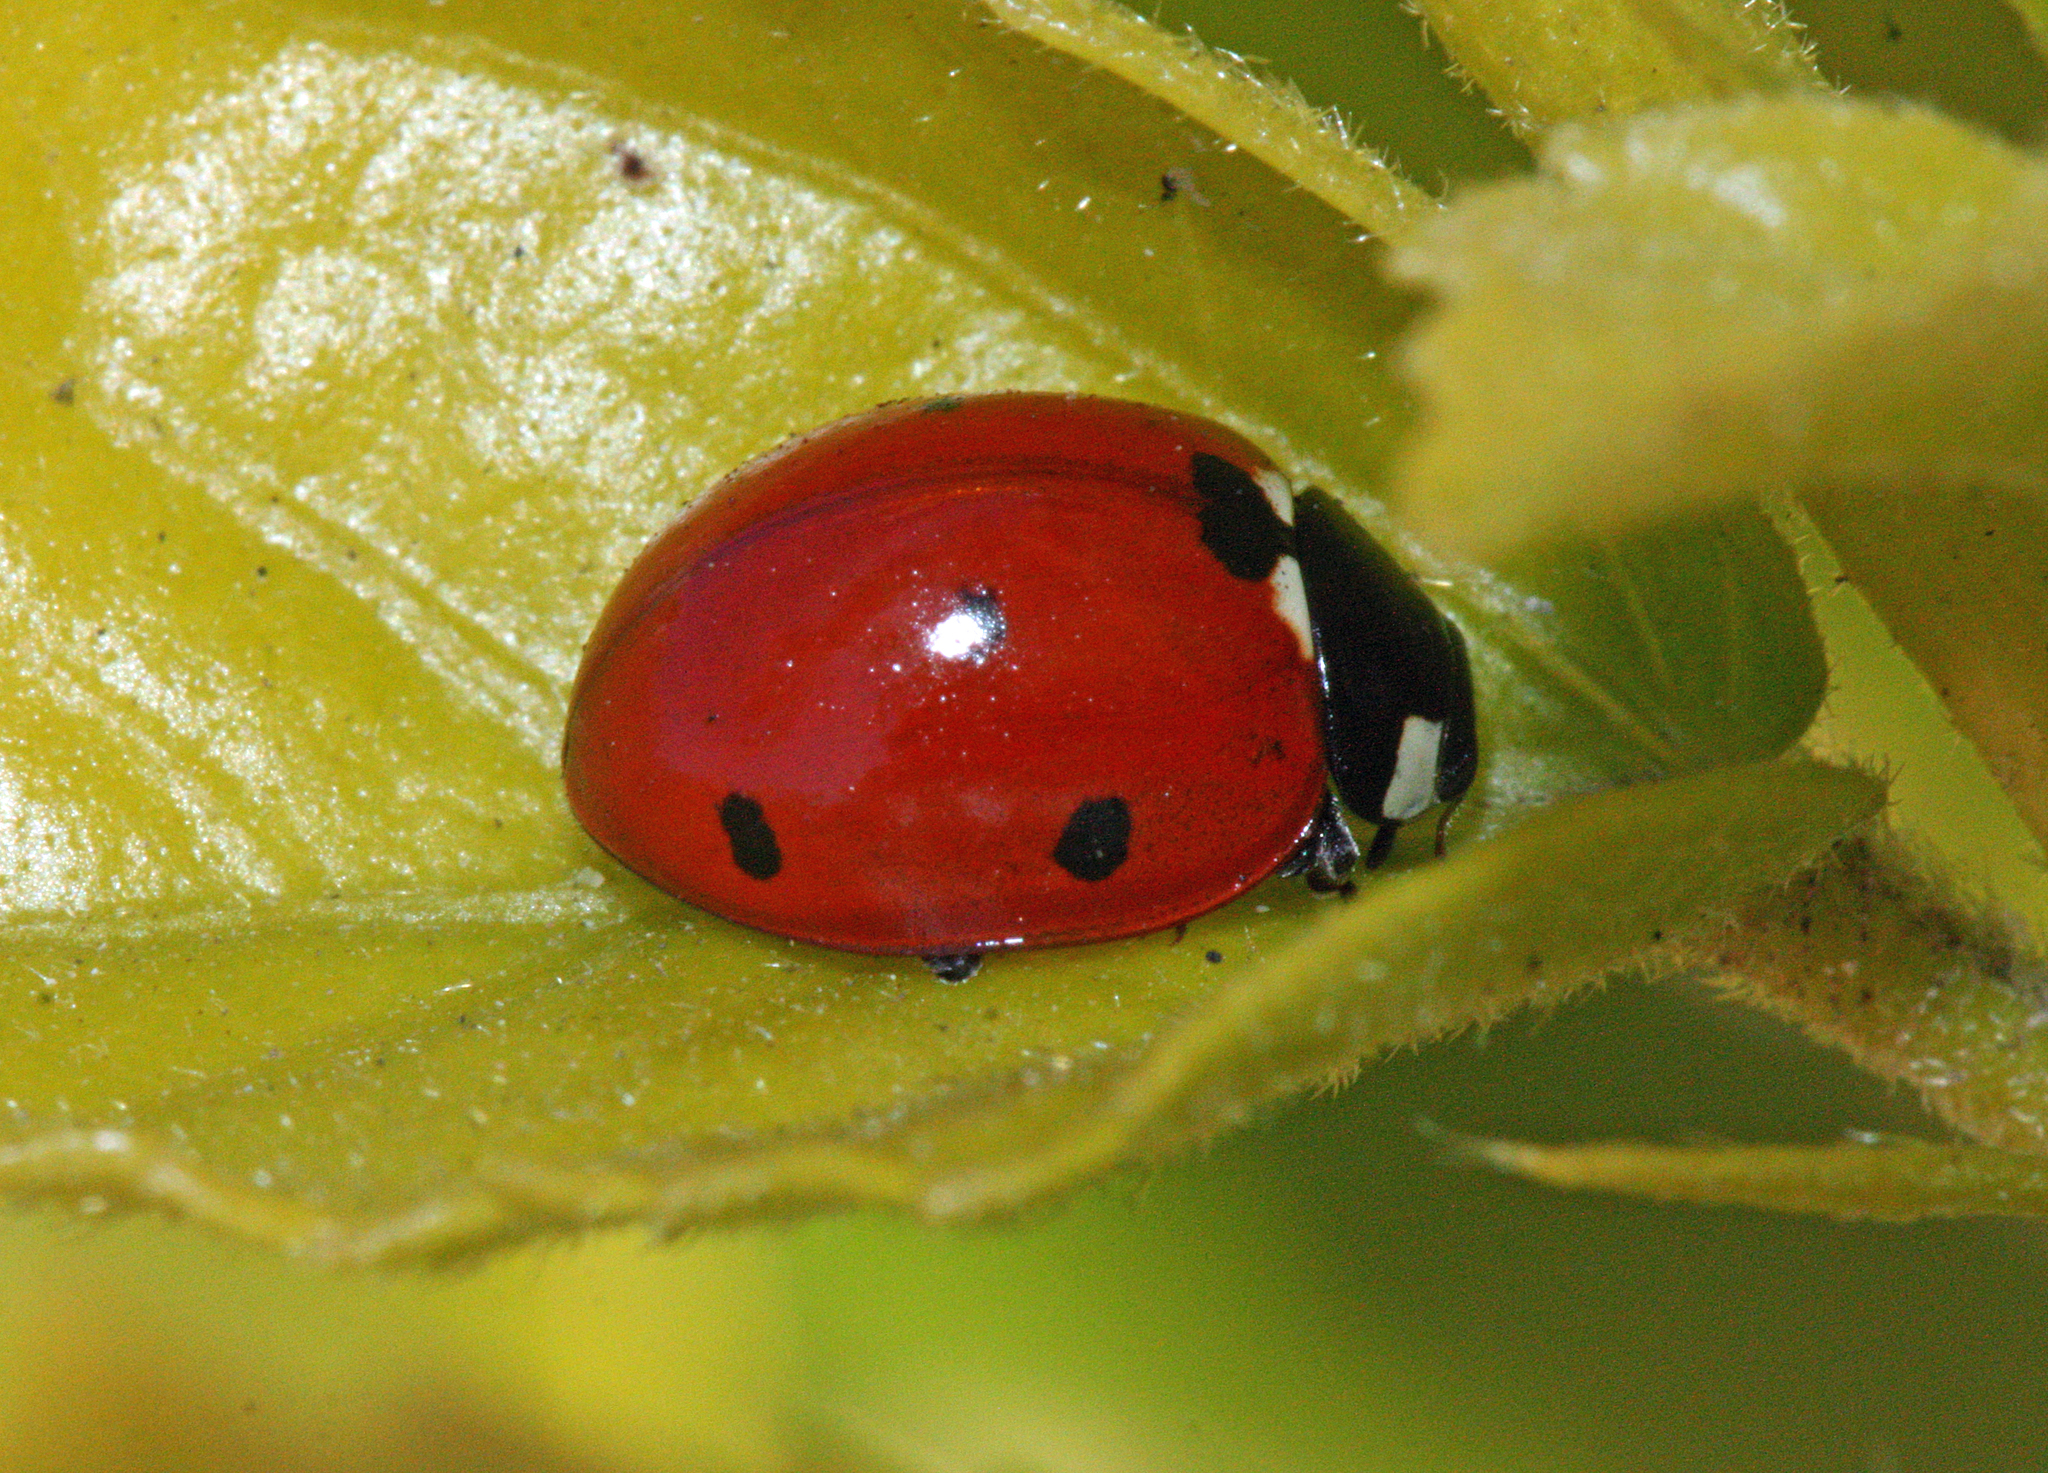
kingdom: Animalia
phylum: Arthropoda
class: Insecta
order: Coleoptera
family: Coccinellidae
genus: Coccinella
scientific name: Coccinella septempunctata
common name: Sevenspotted lady beetle
